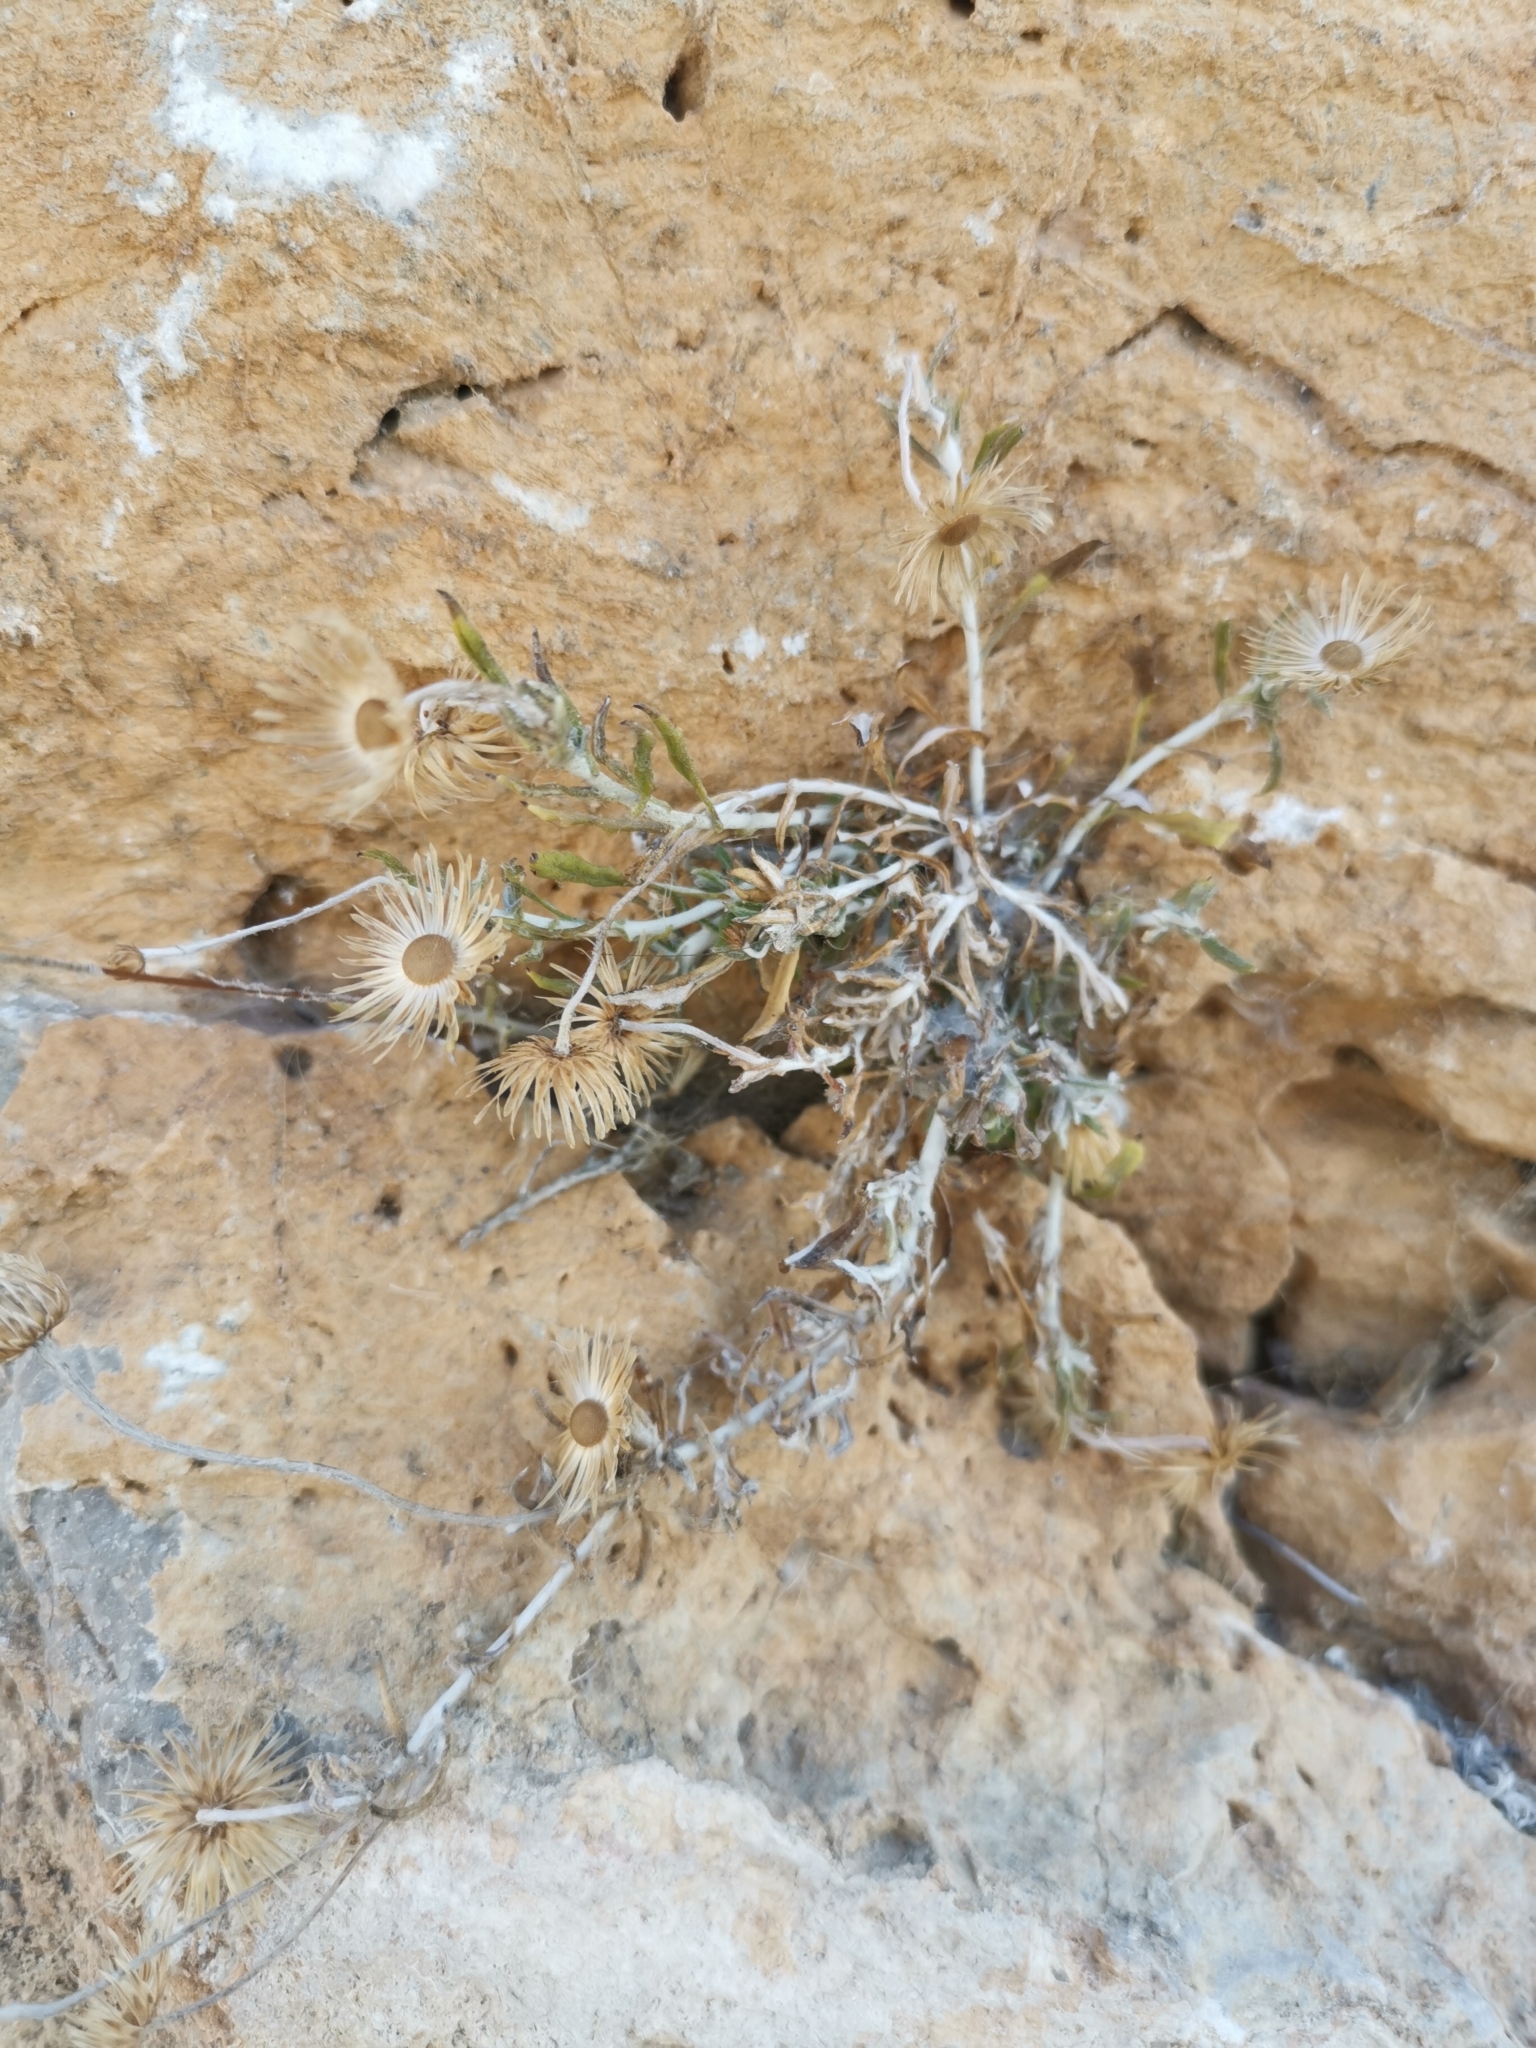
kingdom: Plantae
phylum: Tracheophyta
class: Magnoliopsida
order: Asterales
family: Asteraceae
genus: Phagnalon
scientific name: Phagnalon graecum
